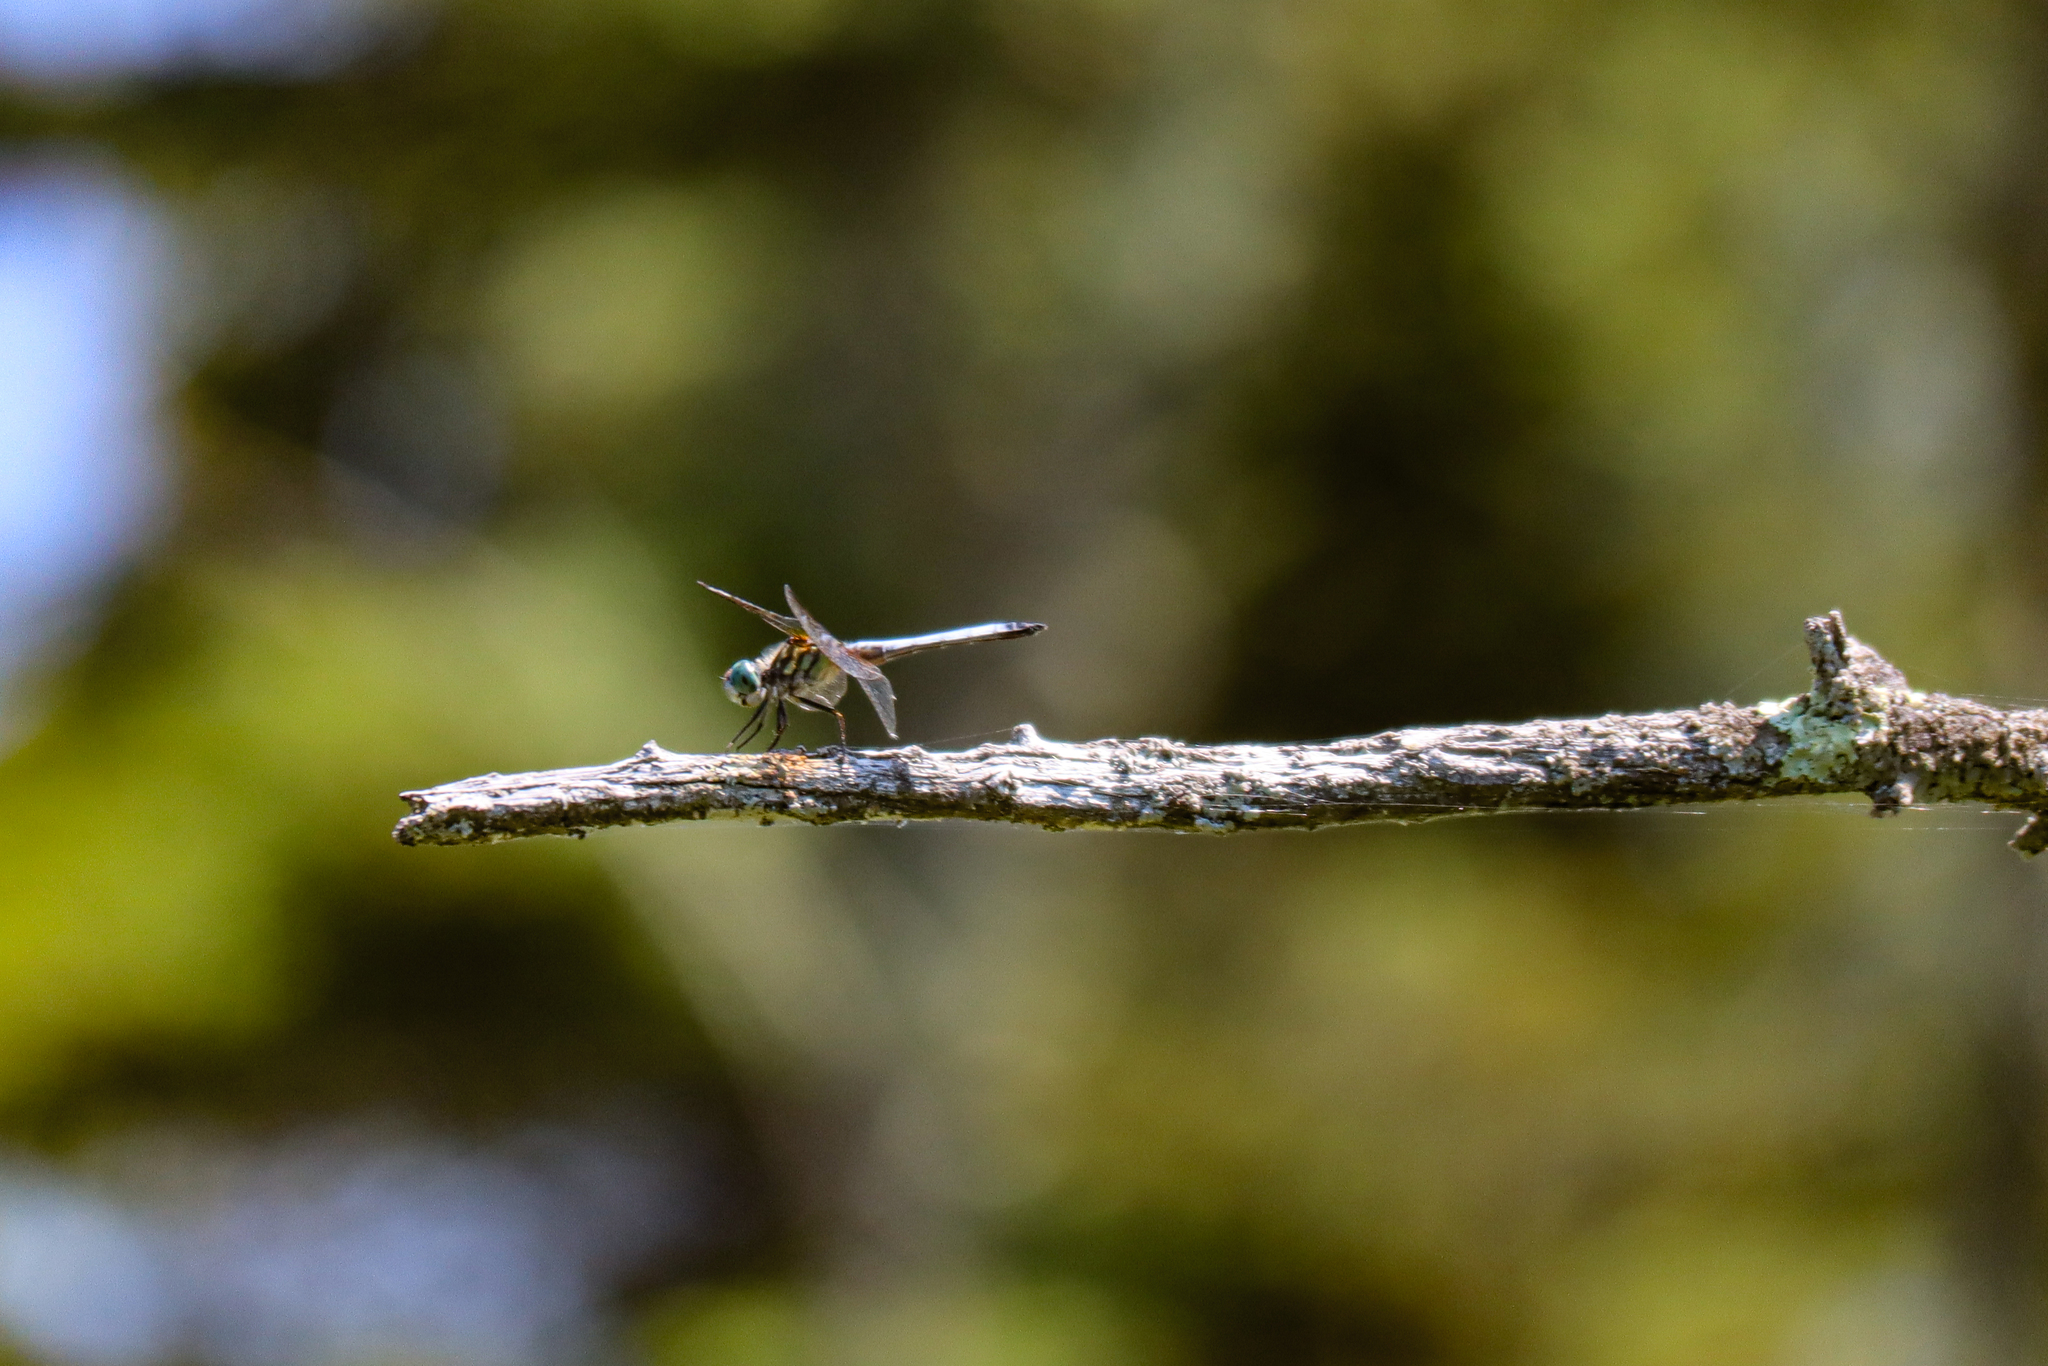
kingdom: Animalia
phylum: Arthropoda
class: Insecta
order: Odonata
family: Libellulidae
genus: Pachydiplax
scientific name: Pachydiplax longipennis
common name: Blue dasher
